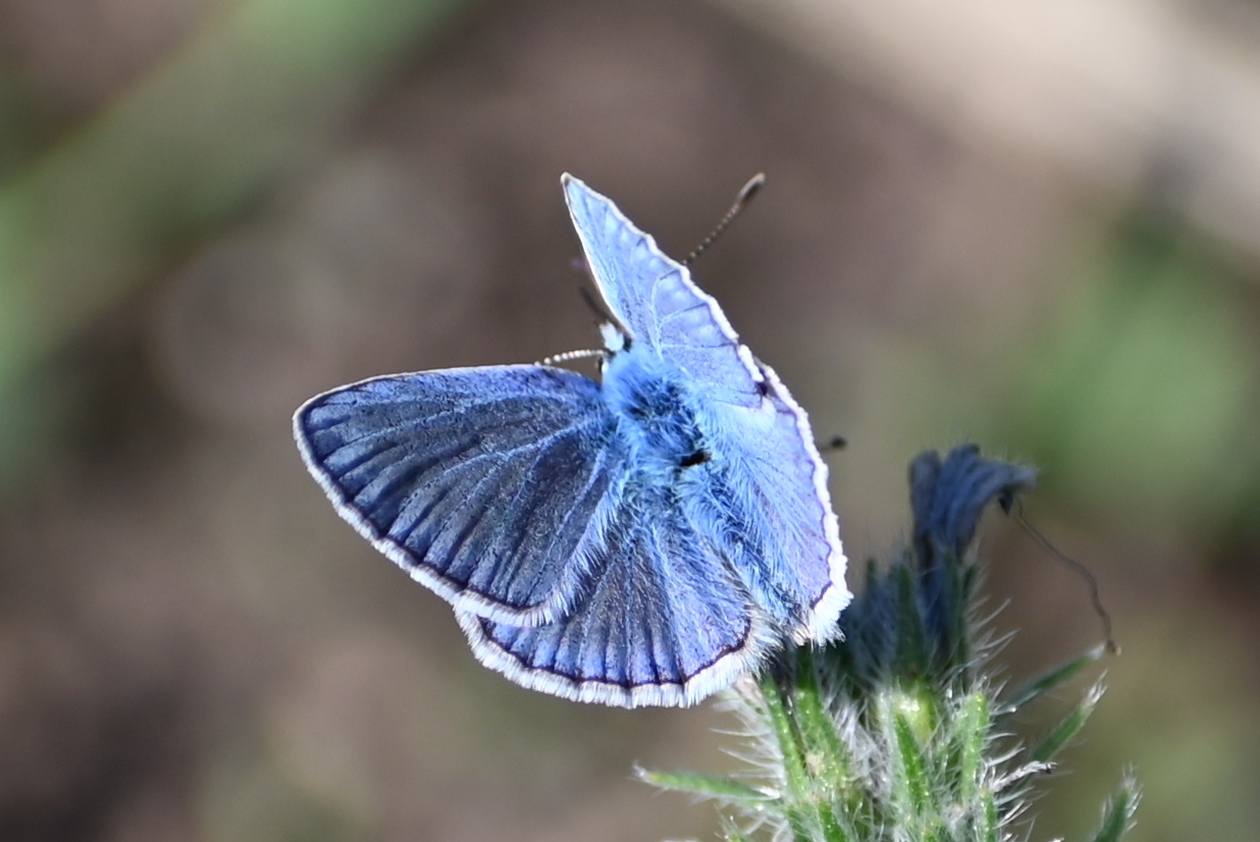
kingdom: Animalia
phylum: Arthropoda
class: Insecta
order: Lepidoptera
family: Lycaenidae
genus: Polyommatus
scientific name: Polyommatus icarus
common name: Common blue
